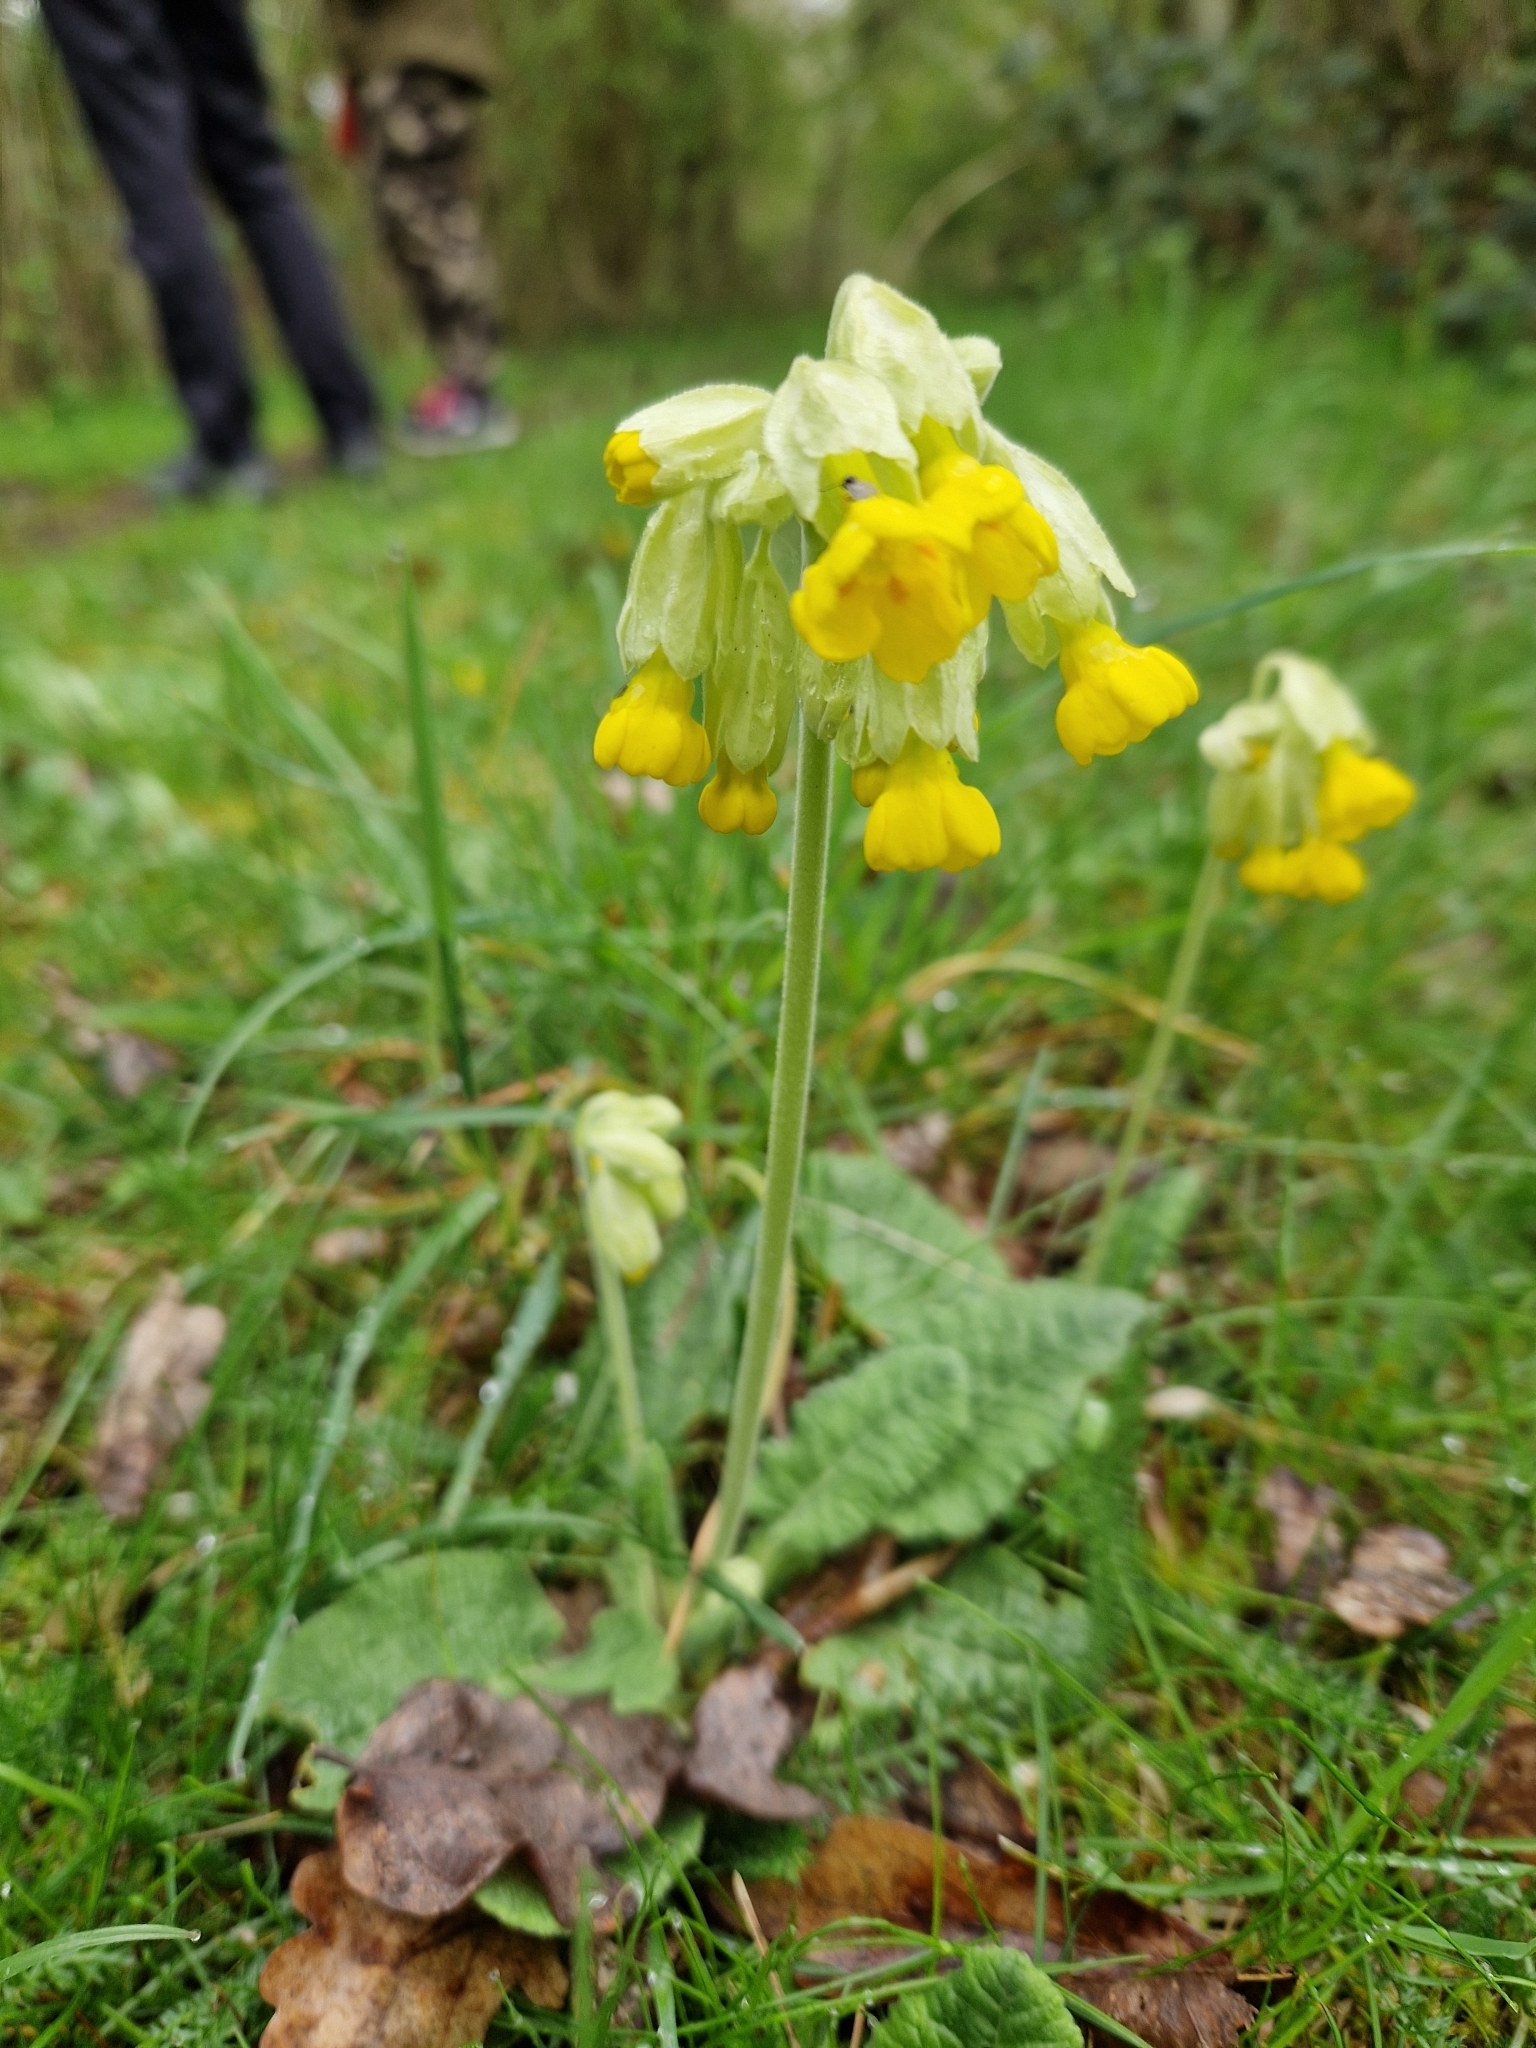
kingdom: Plantae
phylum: Tracheophyta
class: Magnoliopsida
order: Ericales
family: Primulaceae
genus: Primula
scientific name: Primula veris
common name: Cowslip
